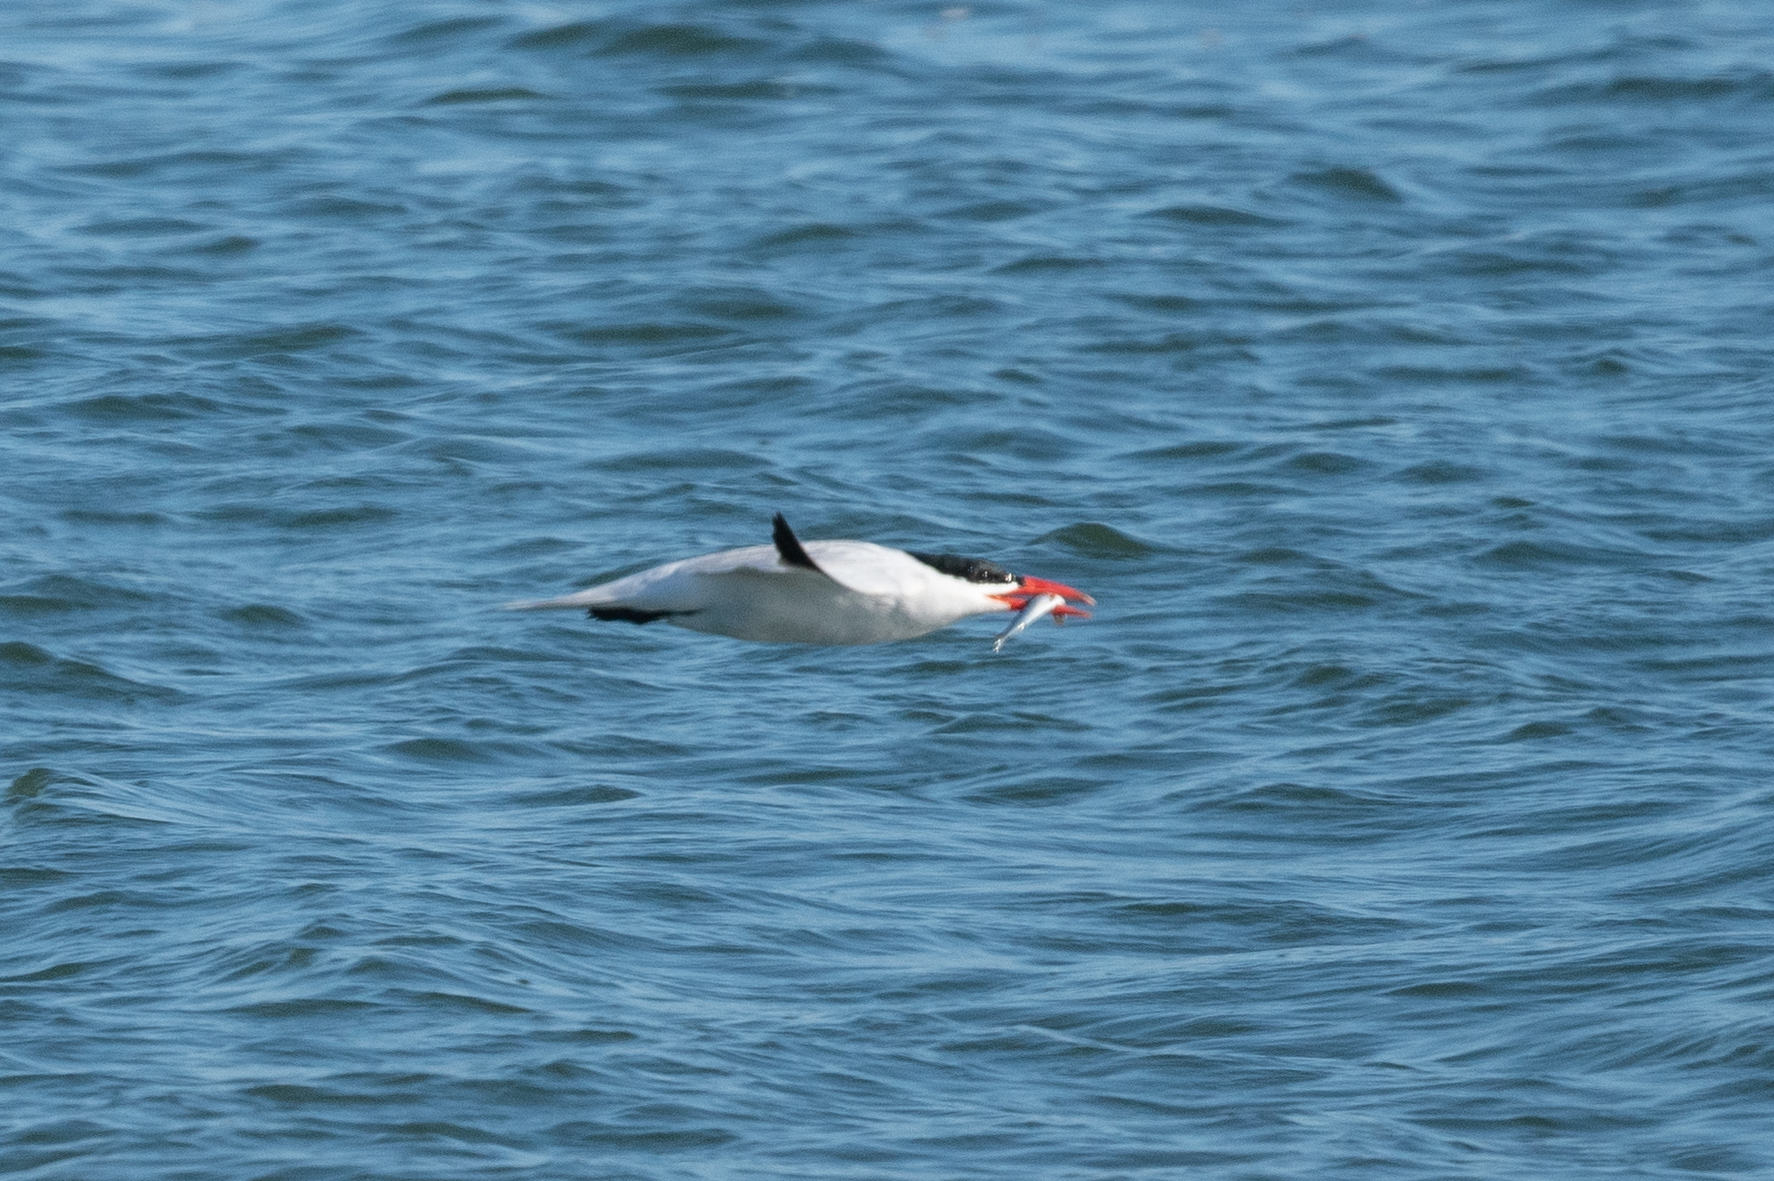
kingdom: Animalia
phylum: Chordata
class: Aves
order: Charadriiformes
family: Laridae
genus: Hydroprogne
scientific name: Hydroprogne caspia
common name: Caspian tern
